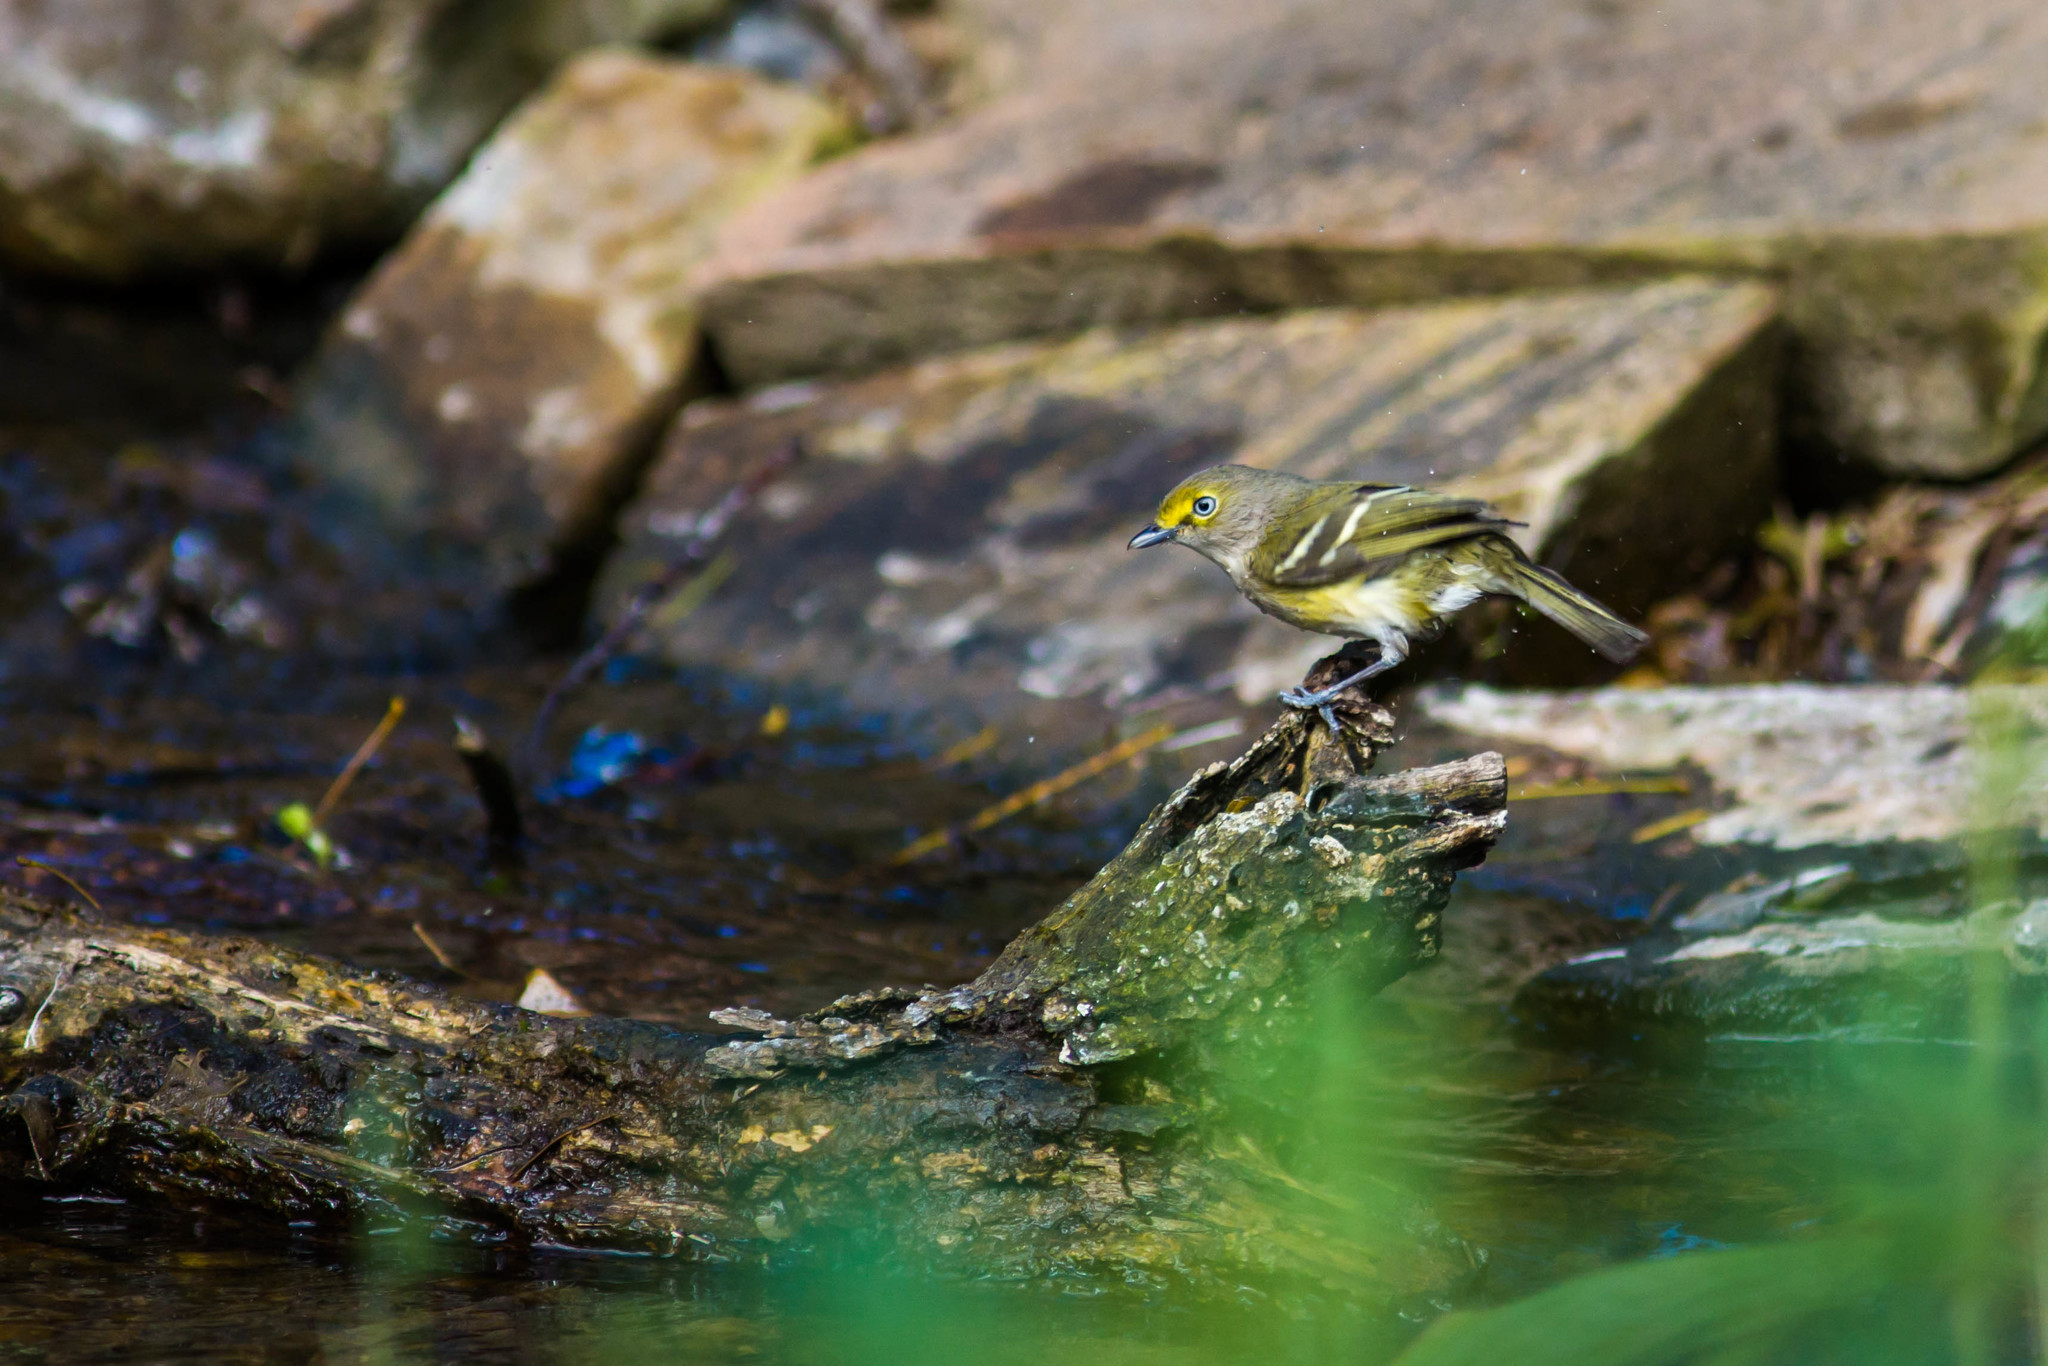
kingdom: Animalia
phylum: Chordata
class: Aves
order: Passeriformes
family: Vireonidae
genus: Vireo
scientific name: Vireo griseus
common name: White-eyed vireo
